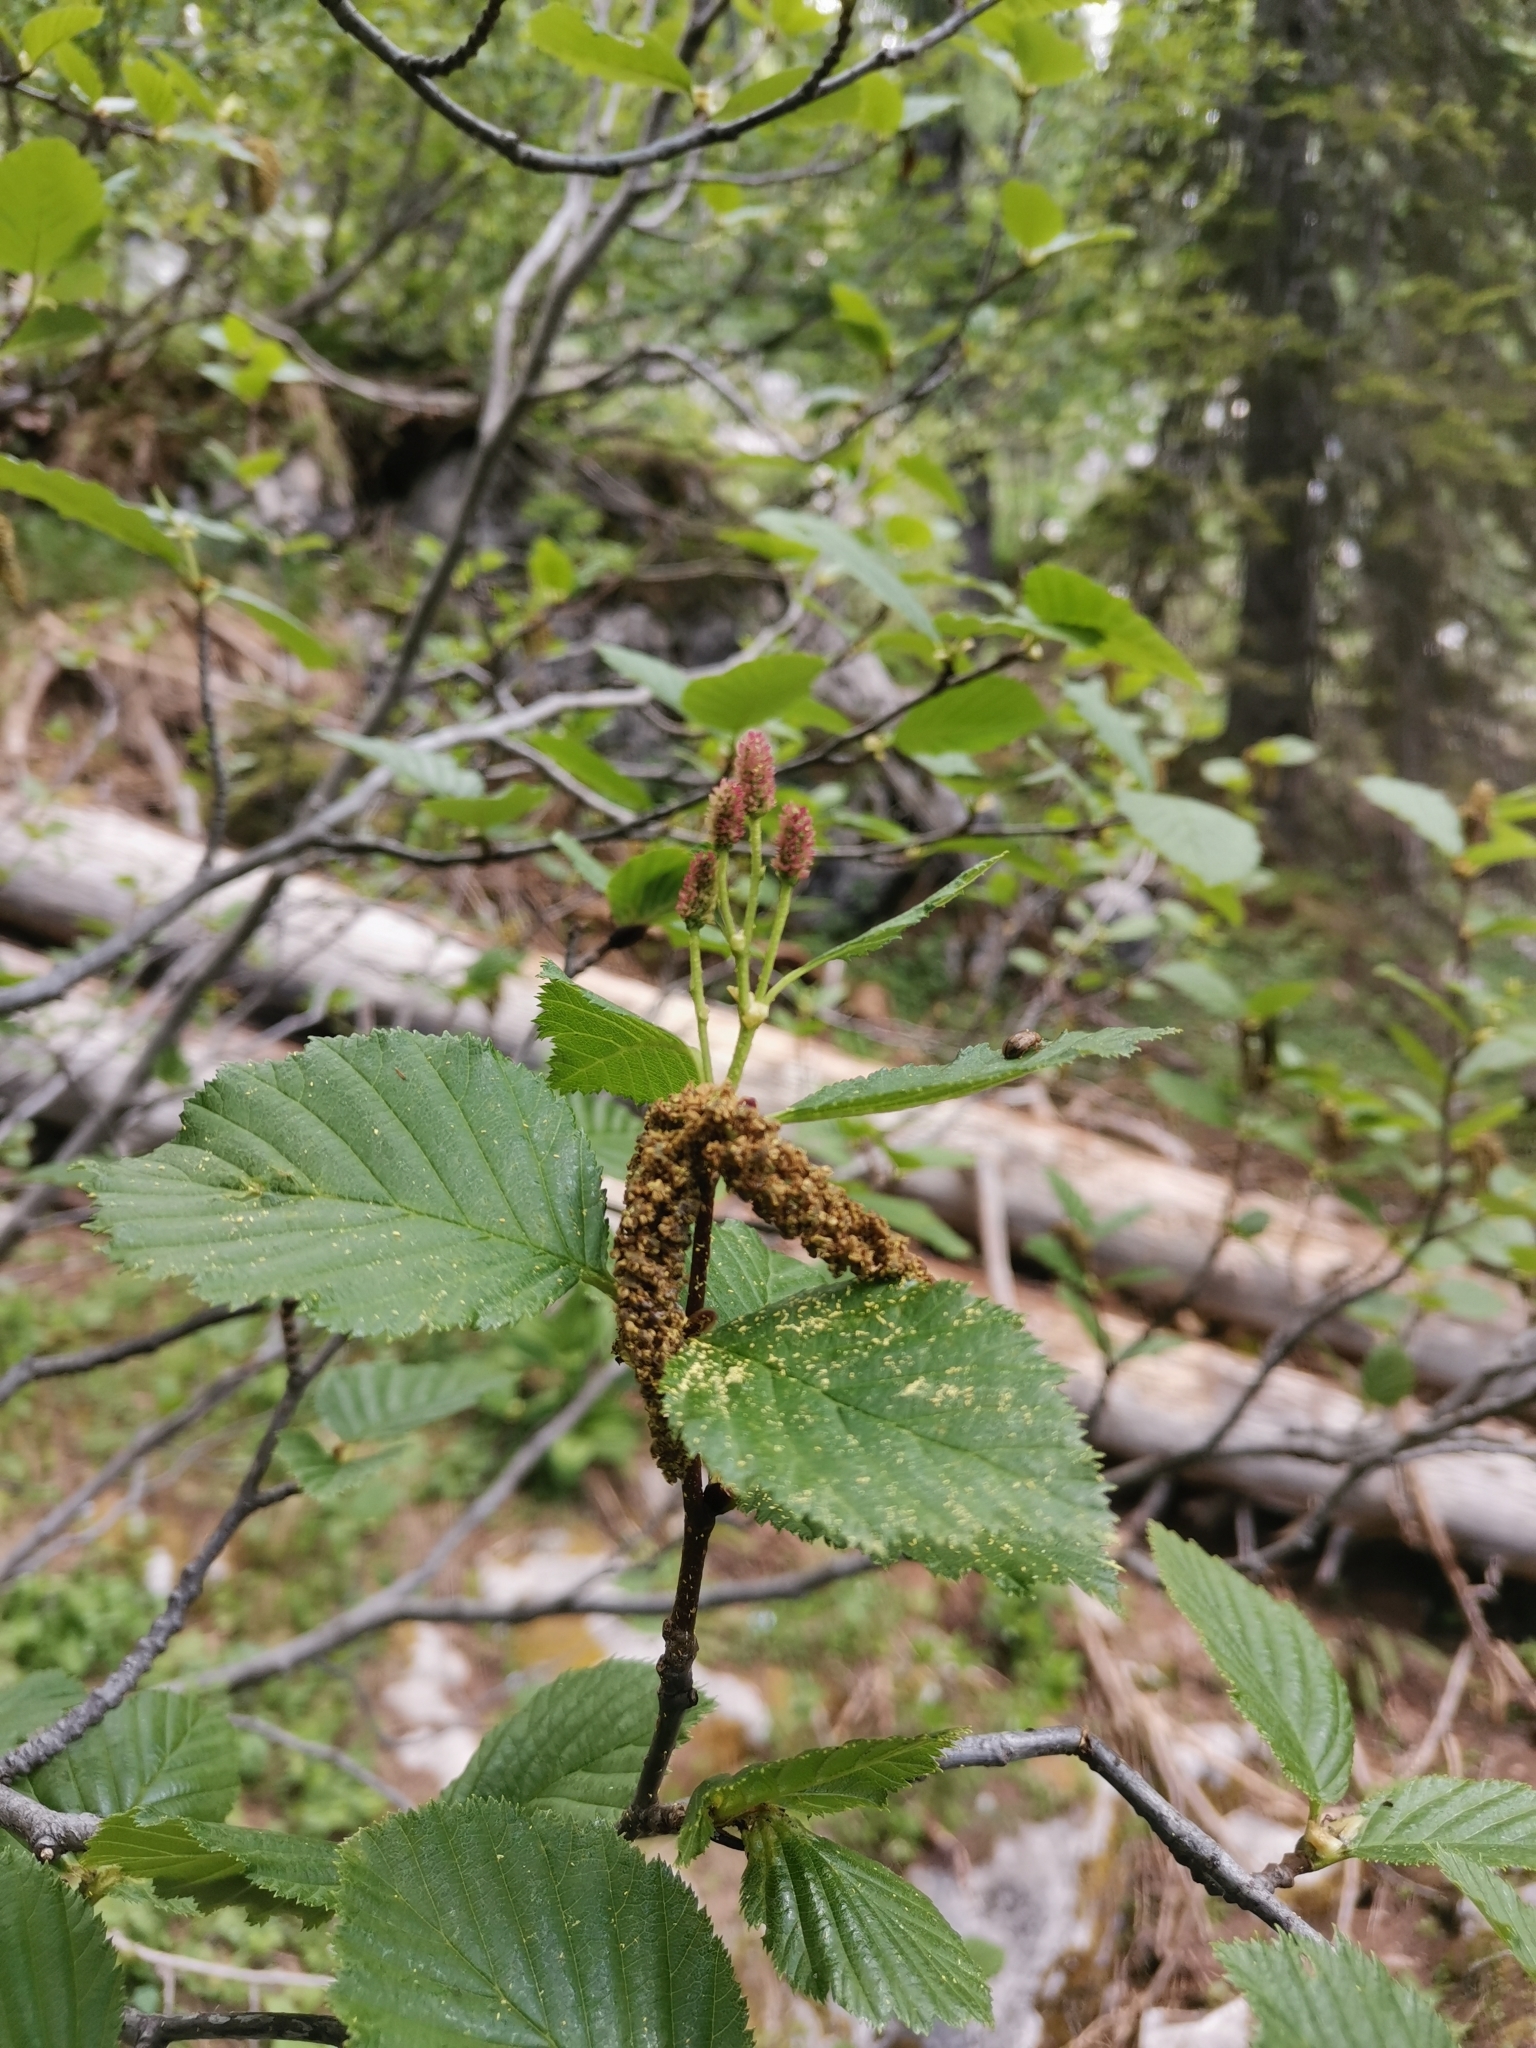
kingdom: Plantae
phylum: Tracheophyta
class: Magnoliopsida
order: Fagales
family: Betulaceae
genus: Alnus
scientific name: Alnus alnobetula
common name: Green alder
